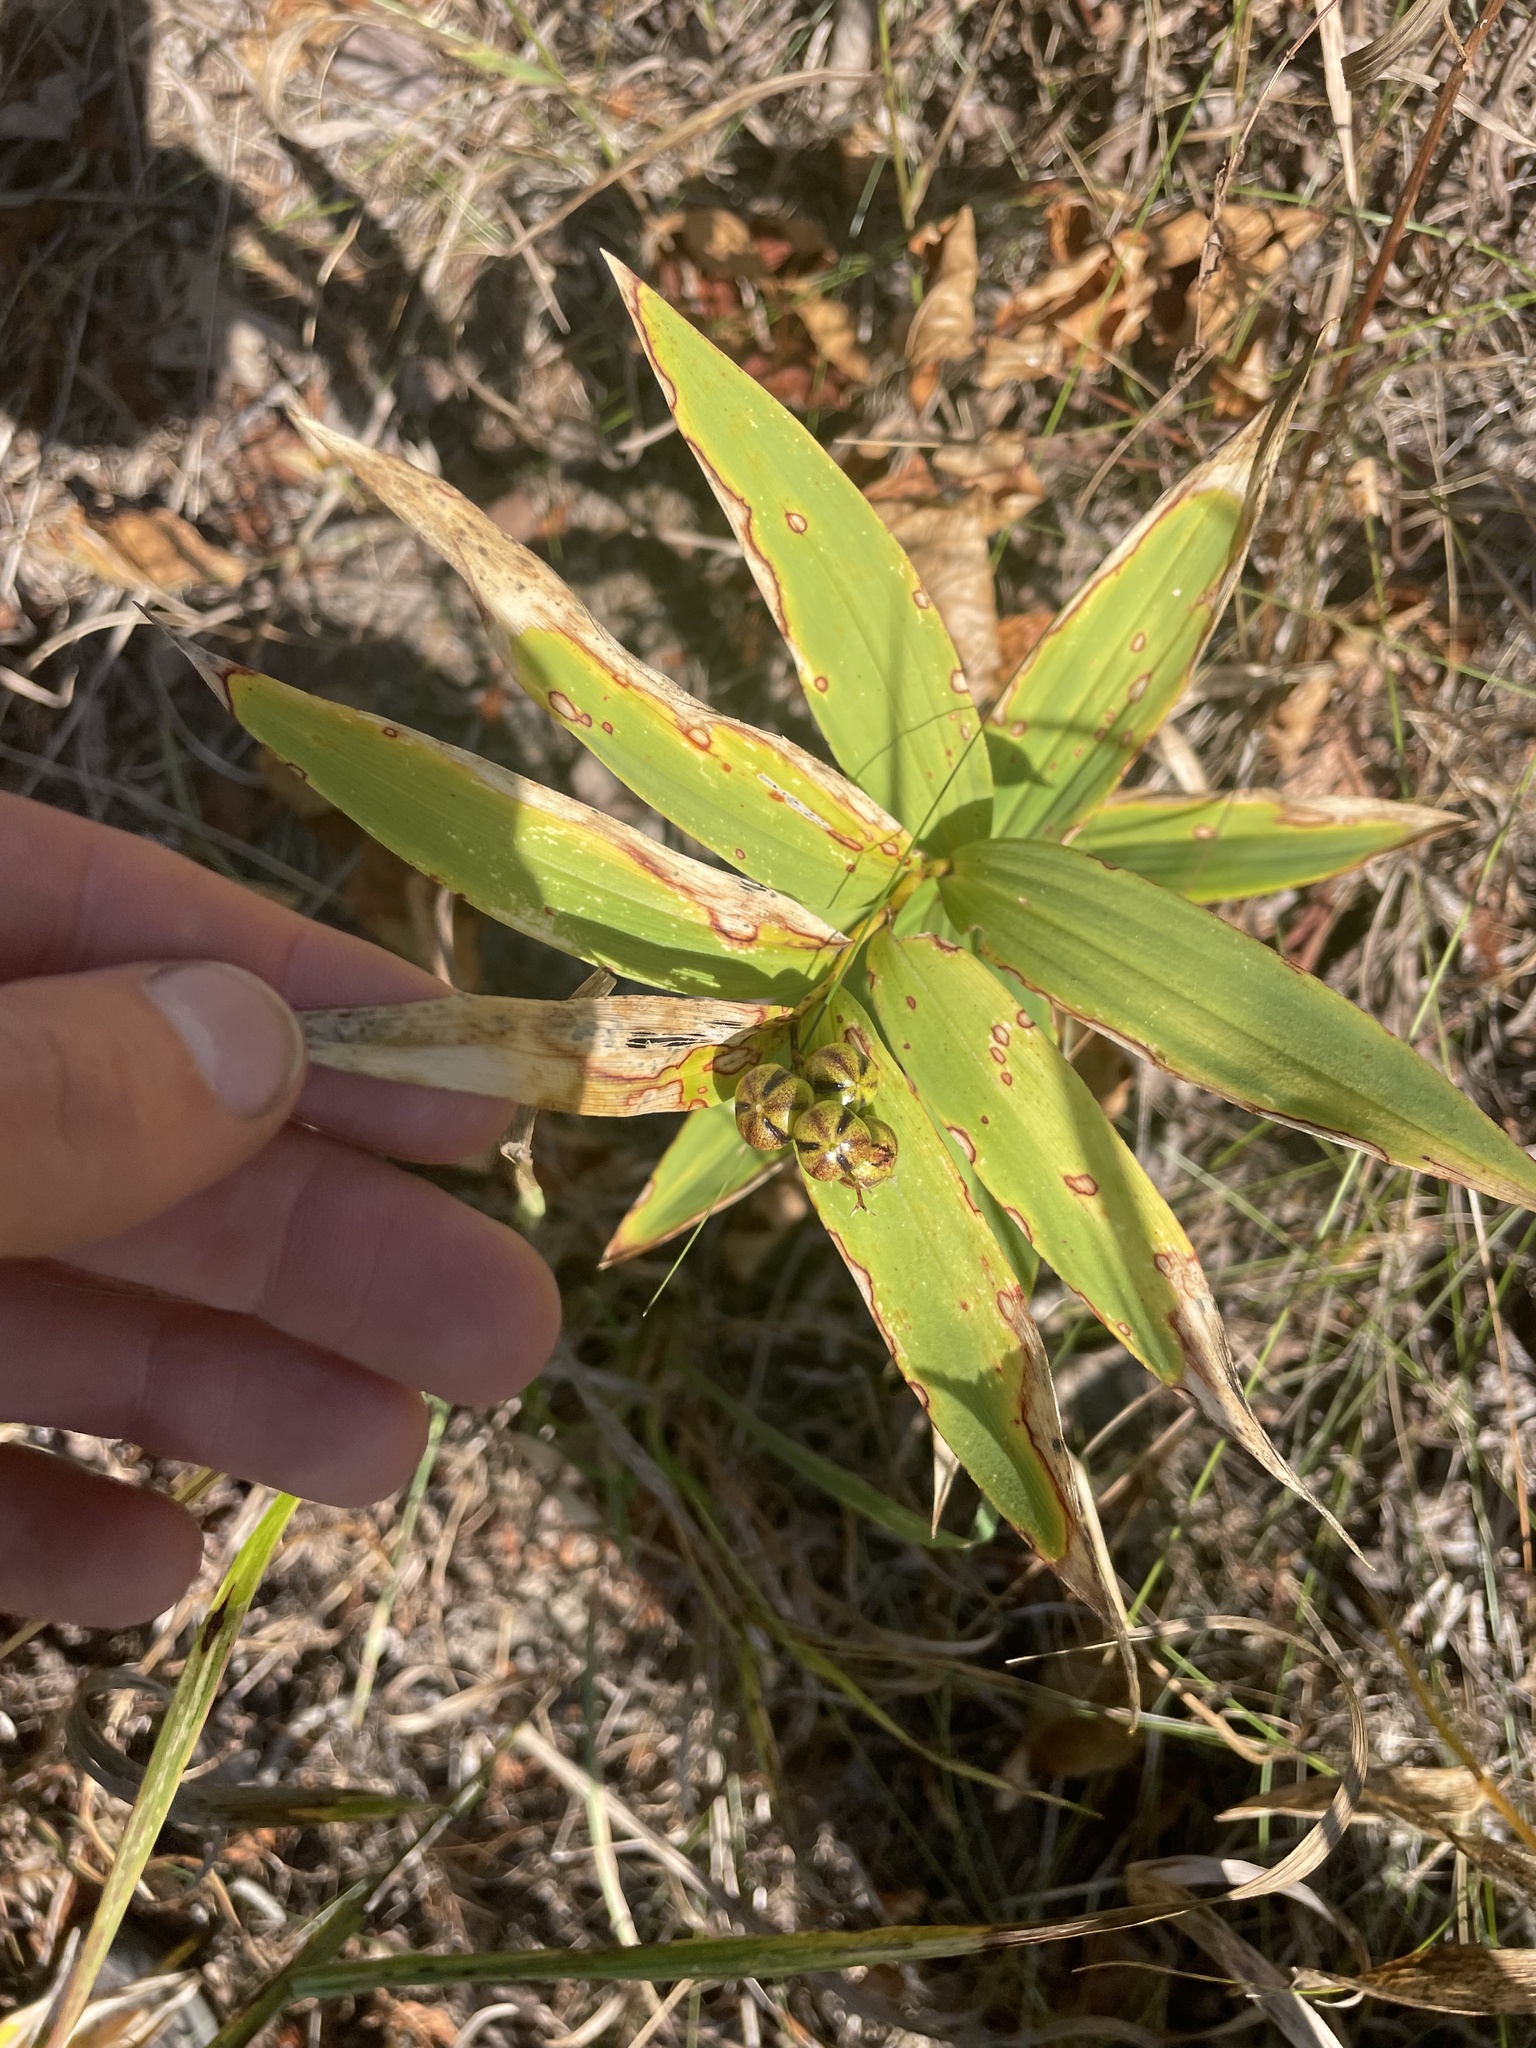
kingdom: Plantae
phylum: Tracheophyta
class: Liliopsida
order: Asparagales
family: Asparagaceae
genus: Maianthemum
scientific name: Maianthemum stellatum
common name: Little false solomon's seal
